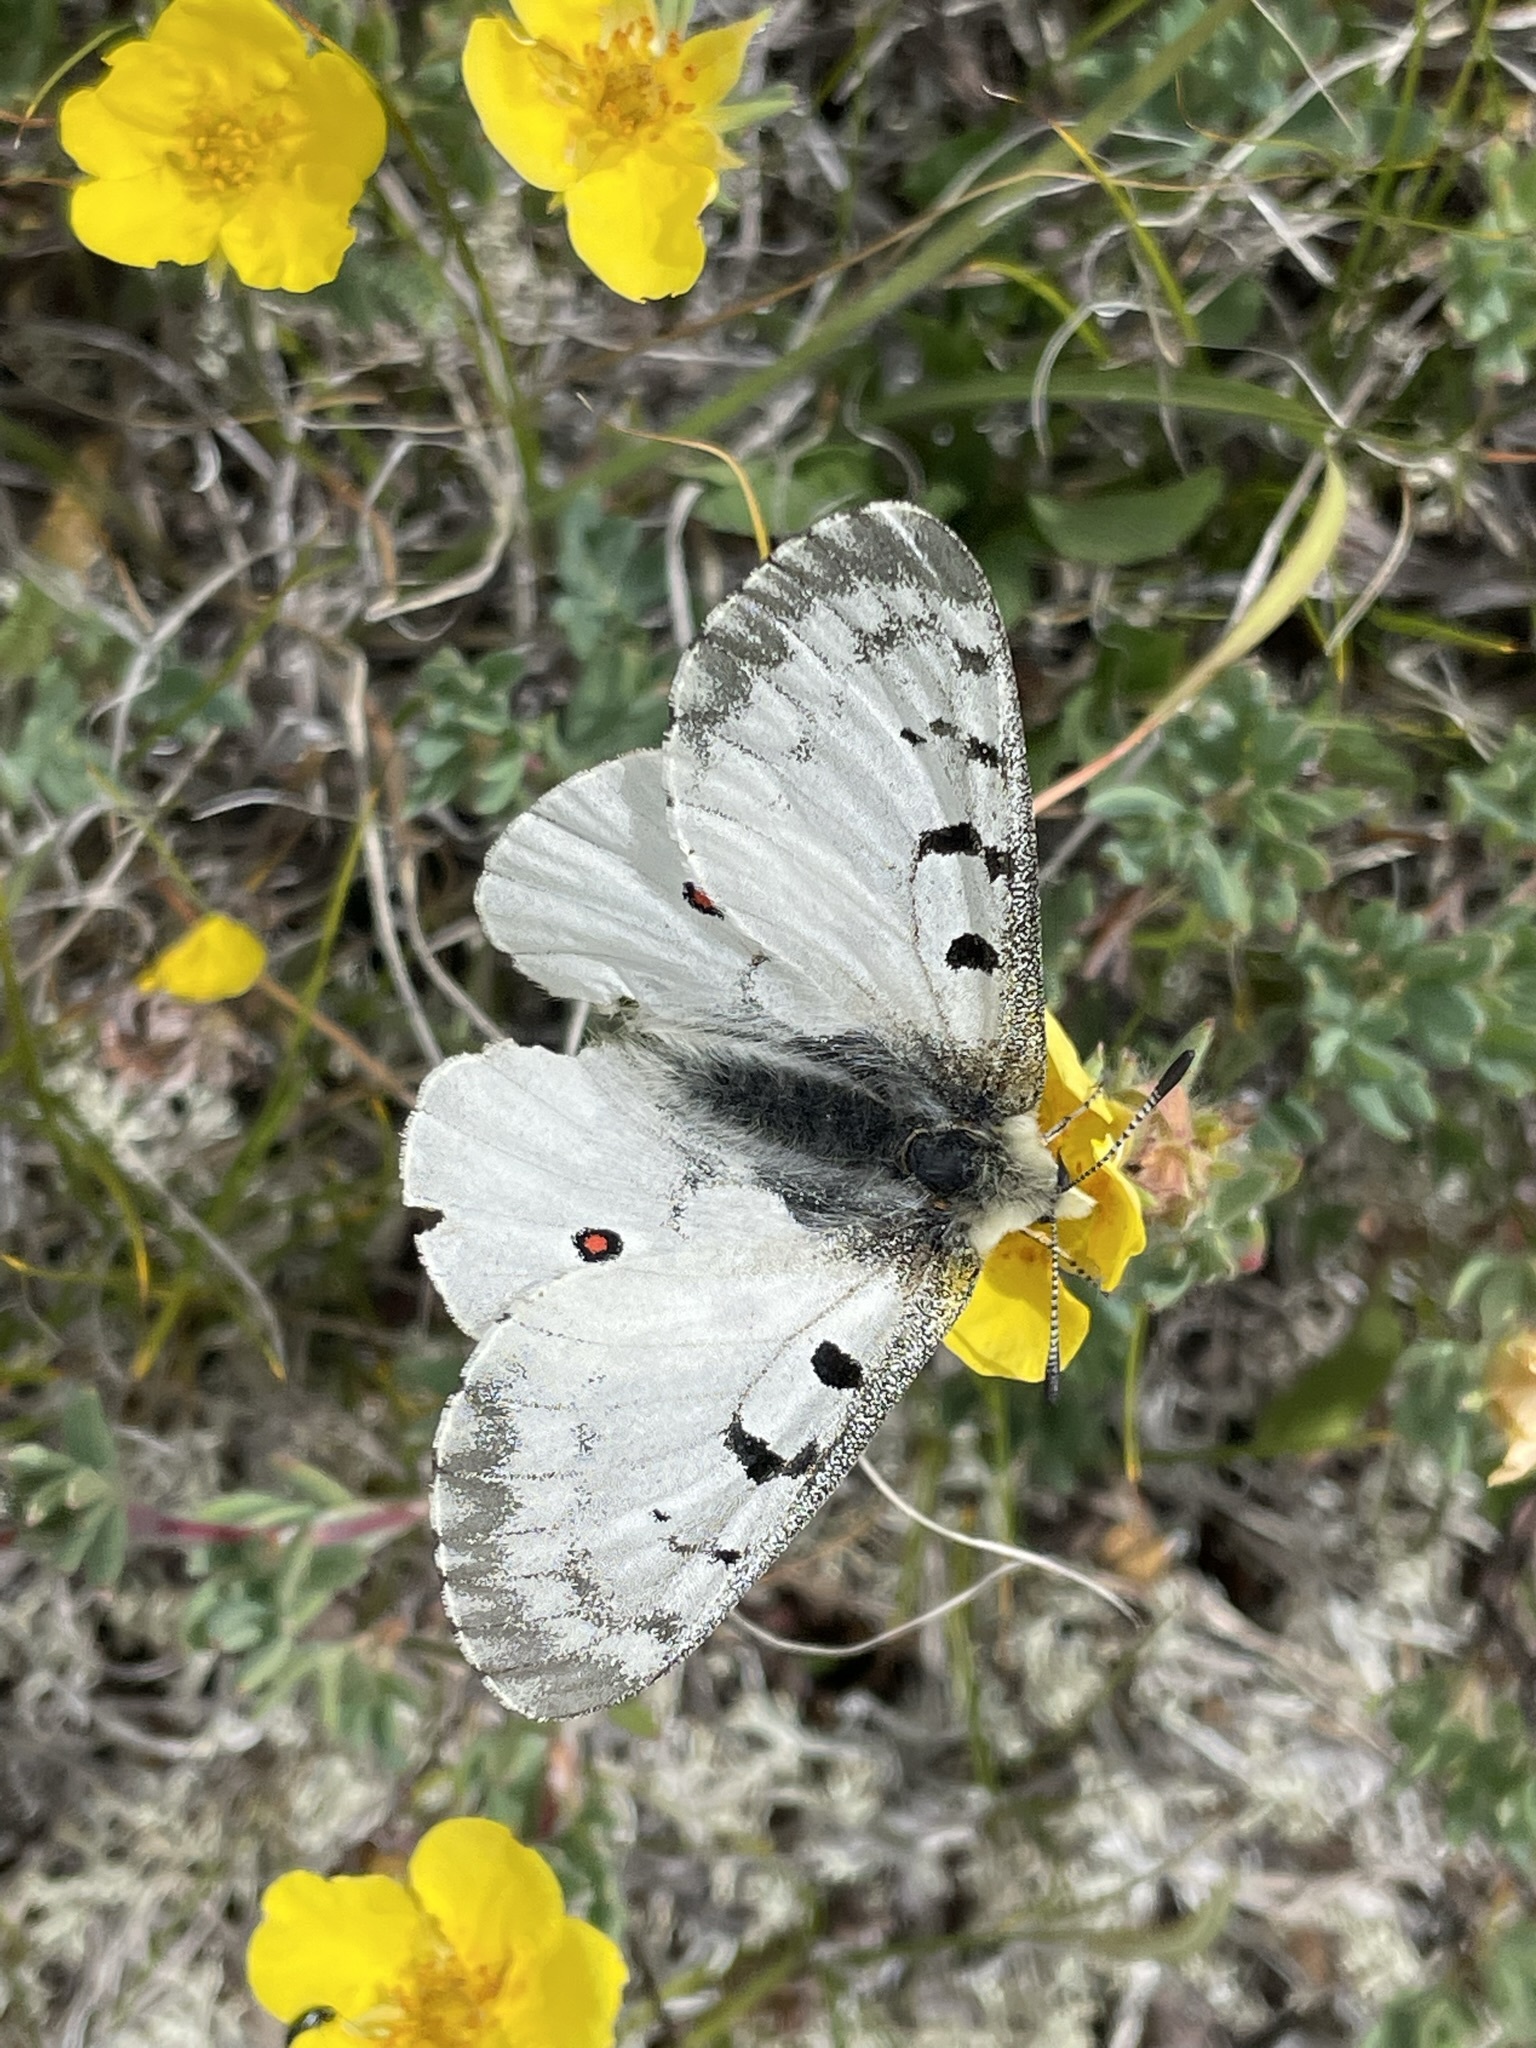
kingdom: Animalia
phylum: Arthropoda
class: Insecta
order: Lepidoptera
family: Papilionidae
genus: Parnassius
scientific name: Parnassius smintheus
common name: Mountain parnassian
